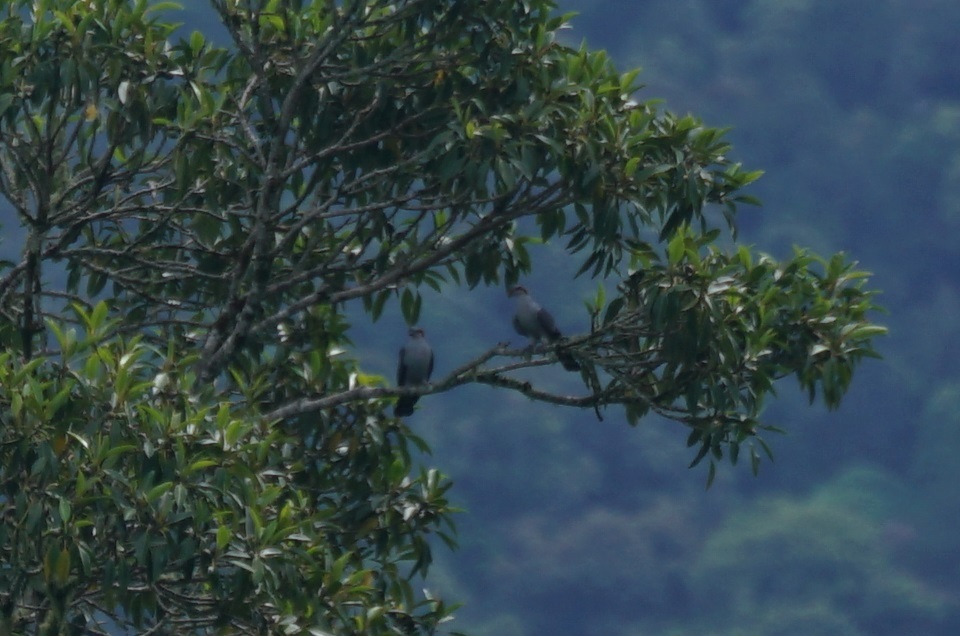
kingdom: Animalia
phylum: Chordata
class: Aves
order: Columbiformes
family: Columbidae
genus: Lopholaimus
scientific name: Lopholaimus antarcticus
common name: Topknot pigeon
